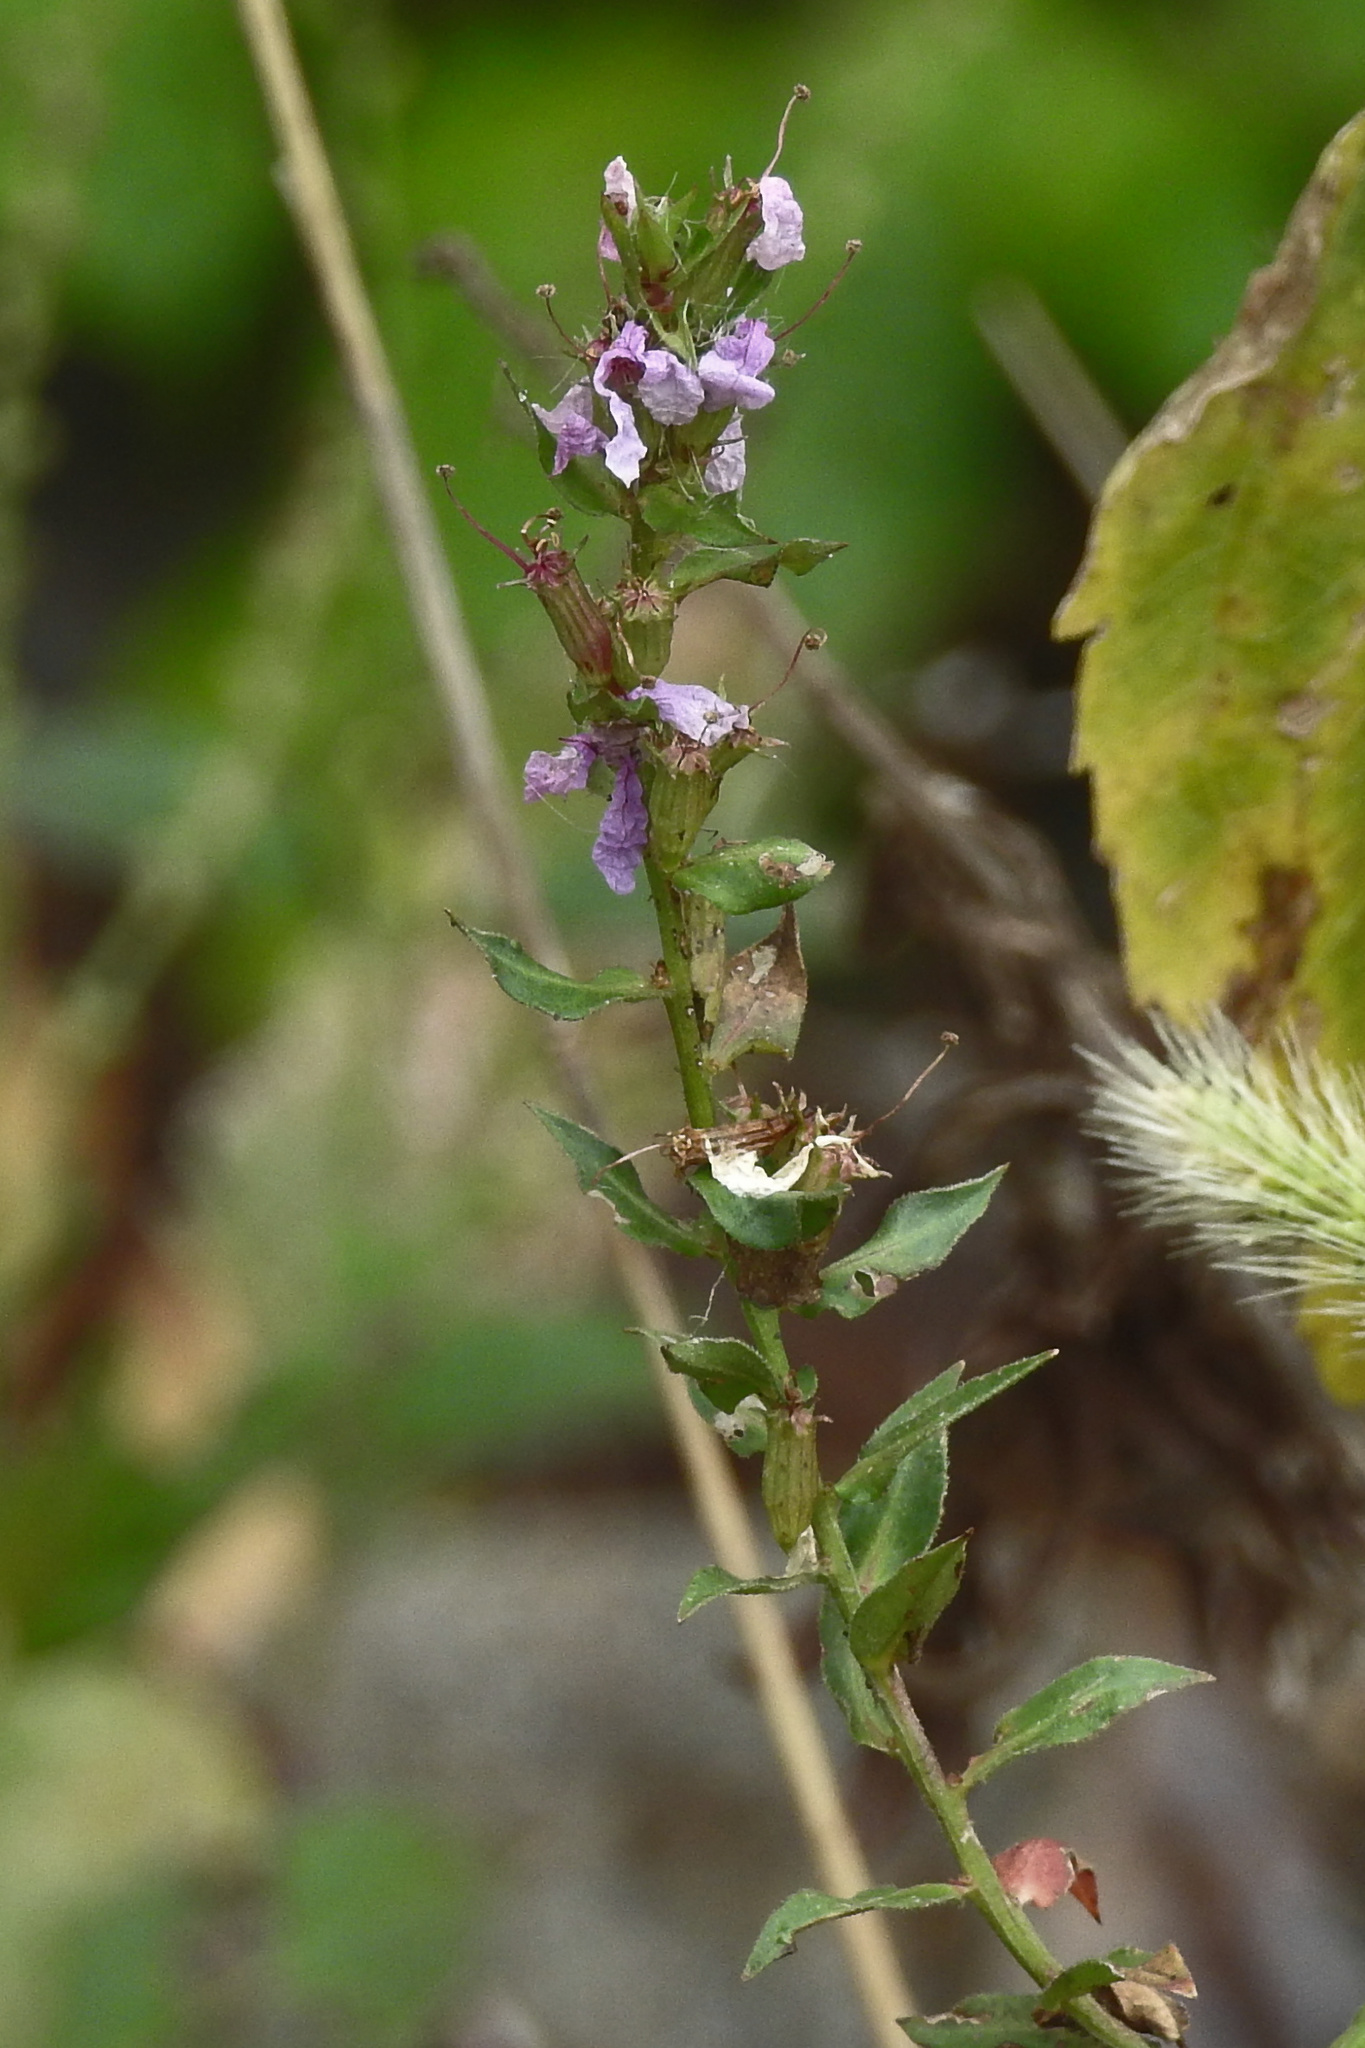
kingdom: Plantae
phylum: Tracheophyta
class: Magnoliopsida
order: Myrtales
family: Lythraceae
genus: Lythrum
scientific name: Lythrum salicaria
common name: Purple loosestrife
